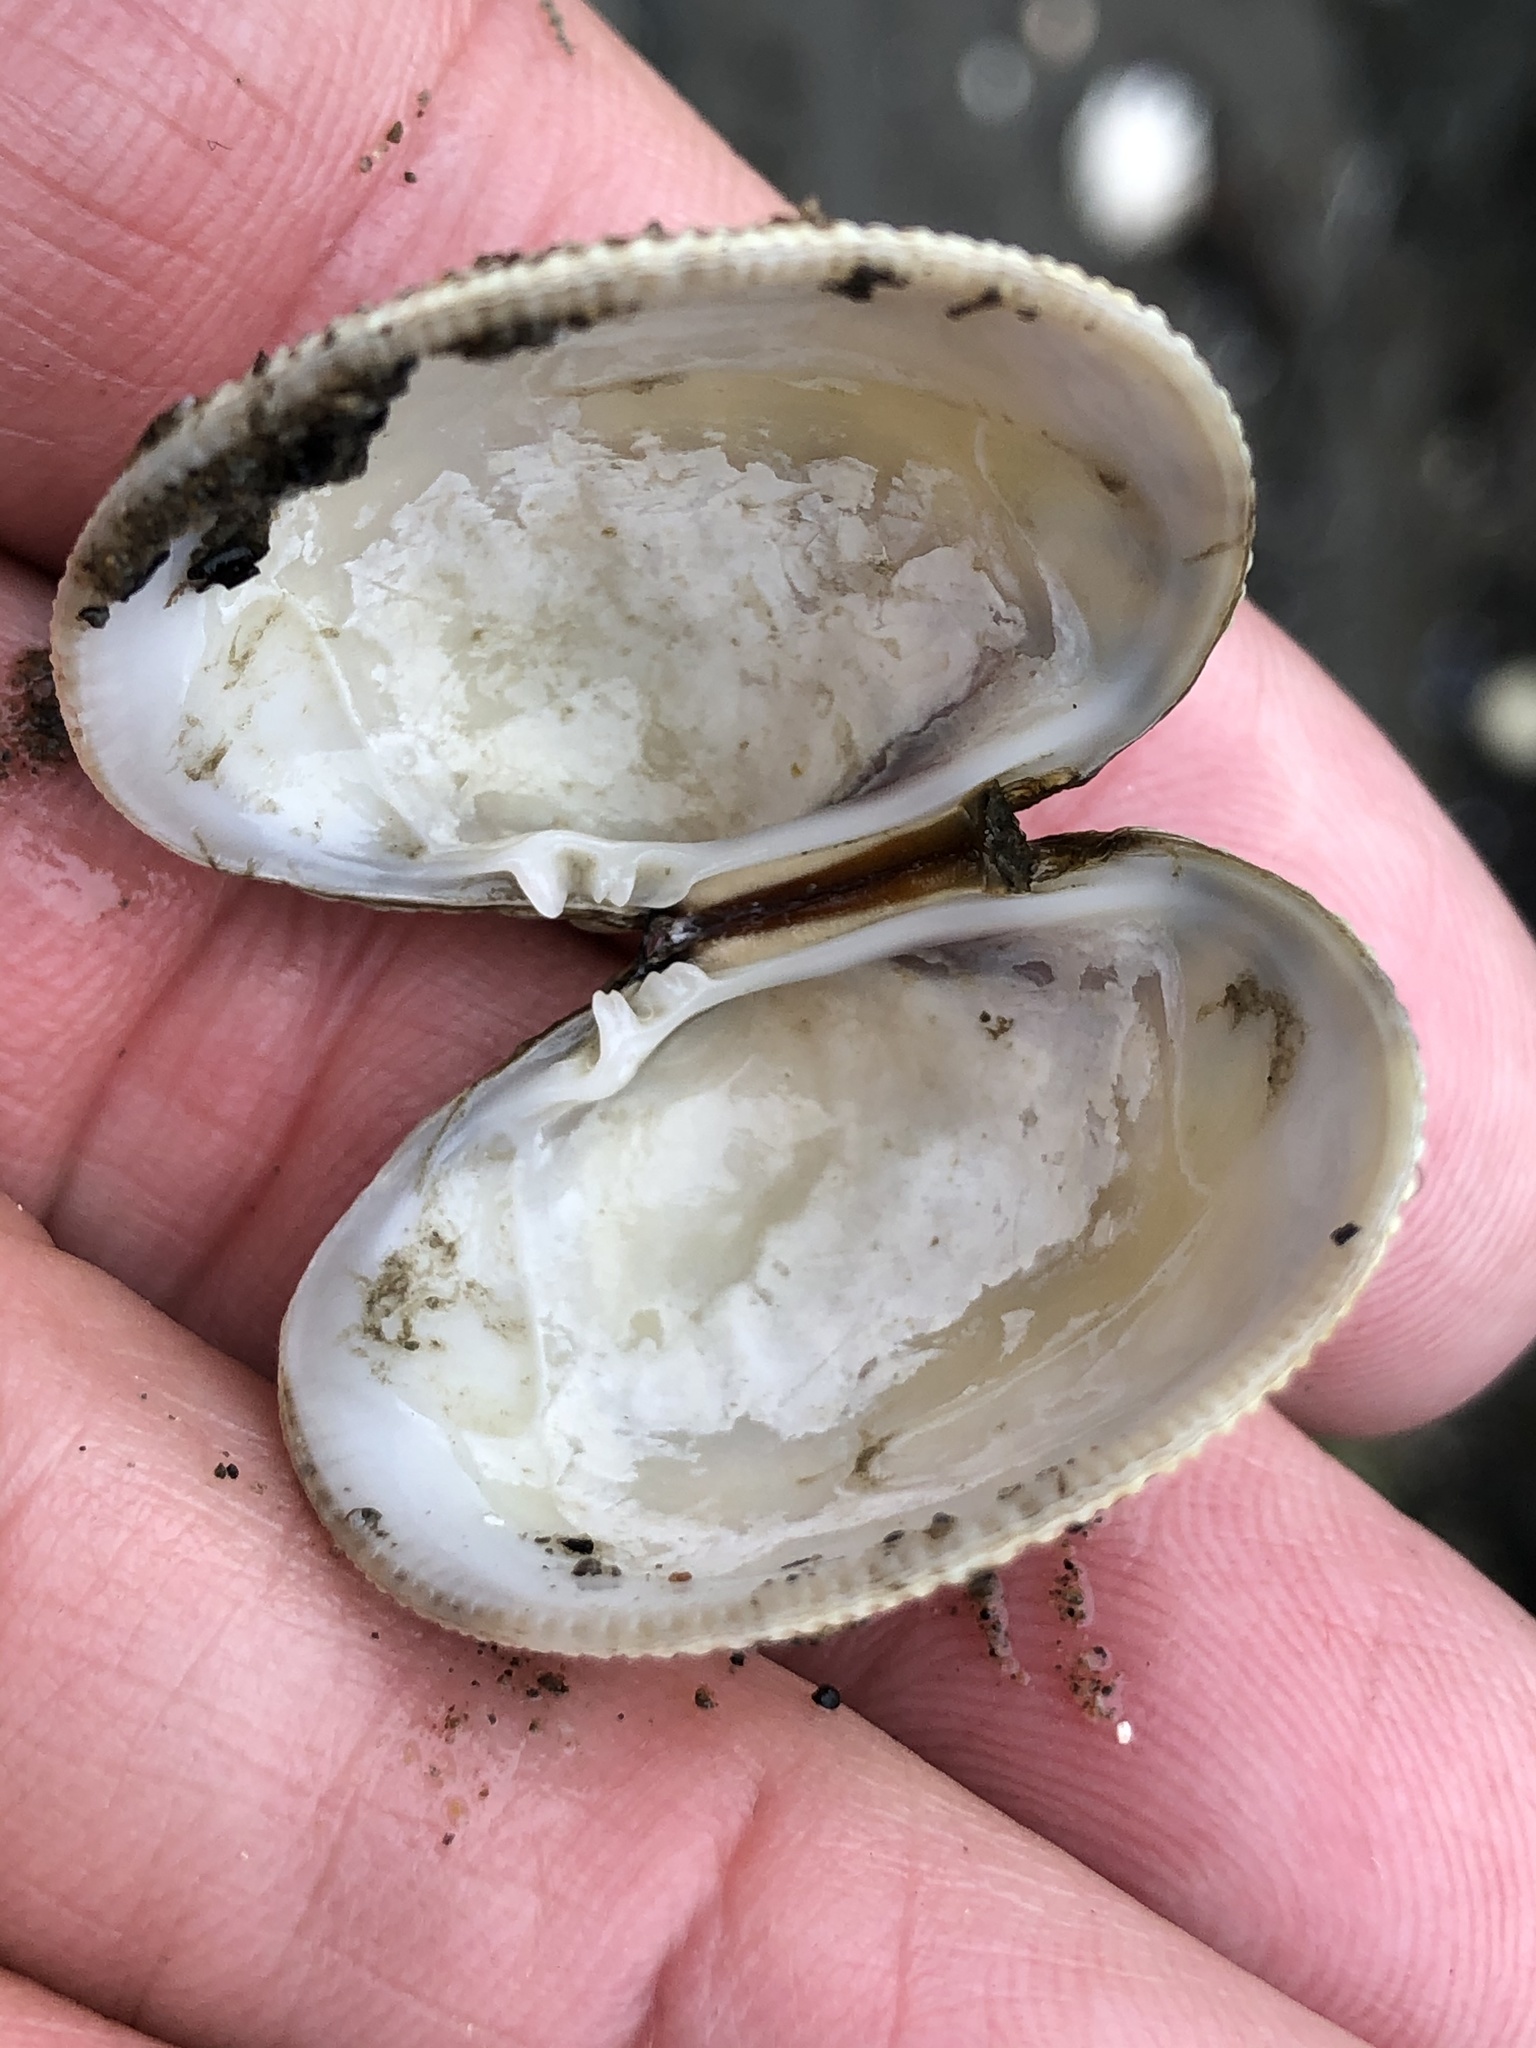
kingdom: Animalia
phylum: Mollusca
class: Bivalvia
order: Venerida
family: Veneridae
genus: Leukoma
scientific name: Leukoma staminea
